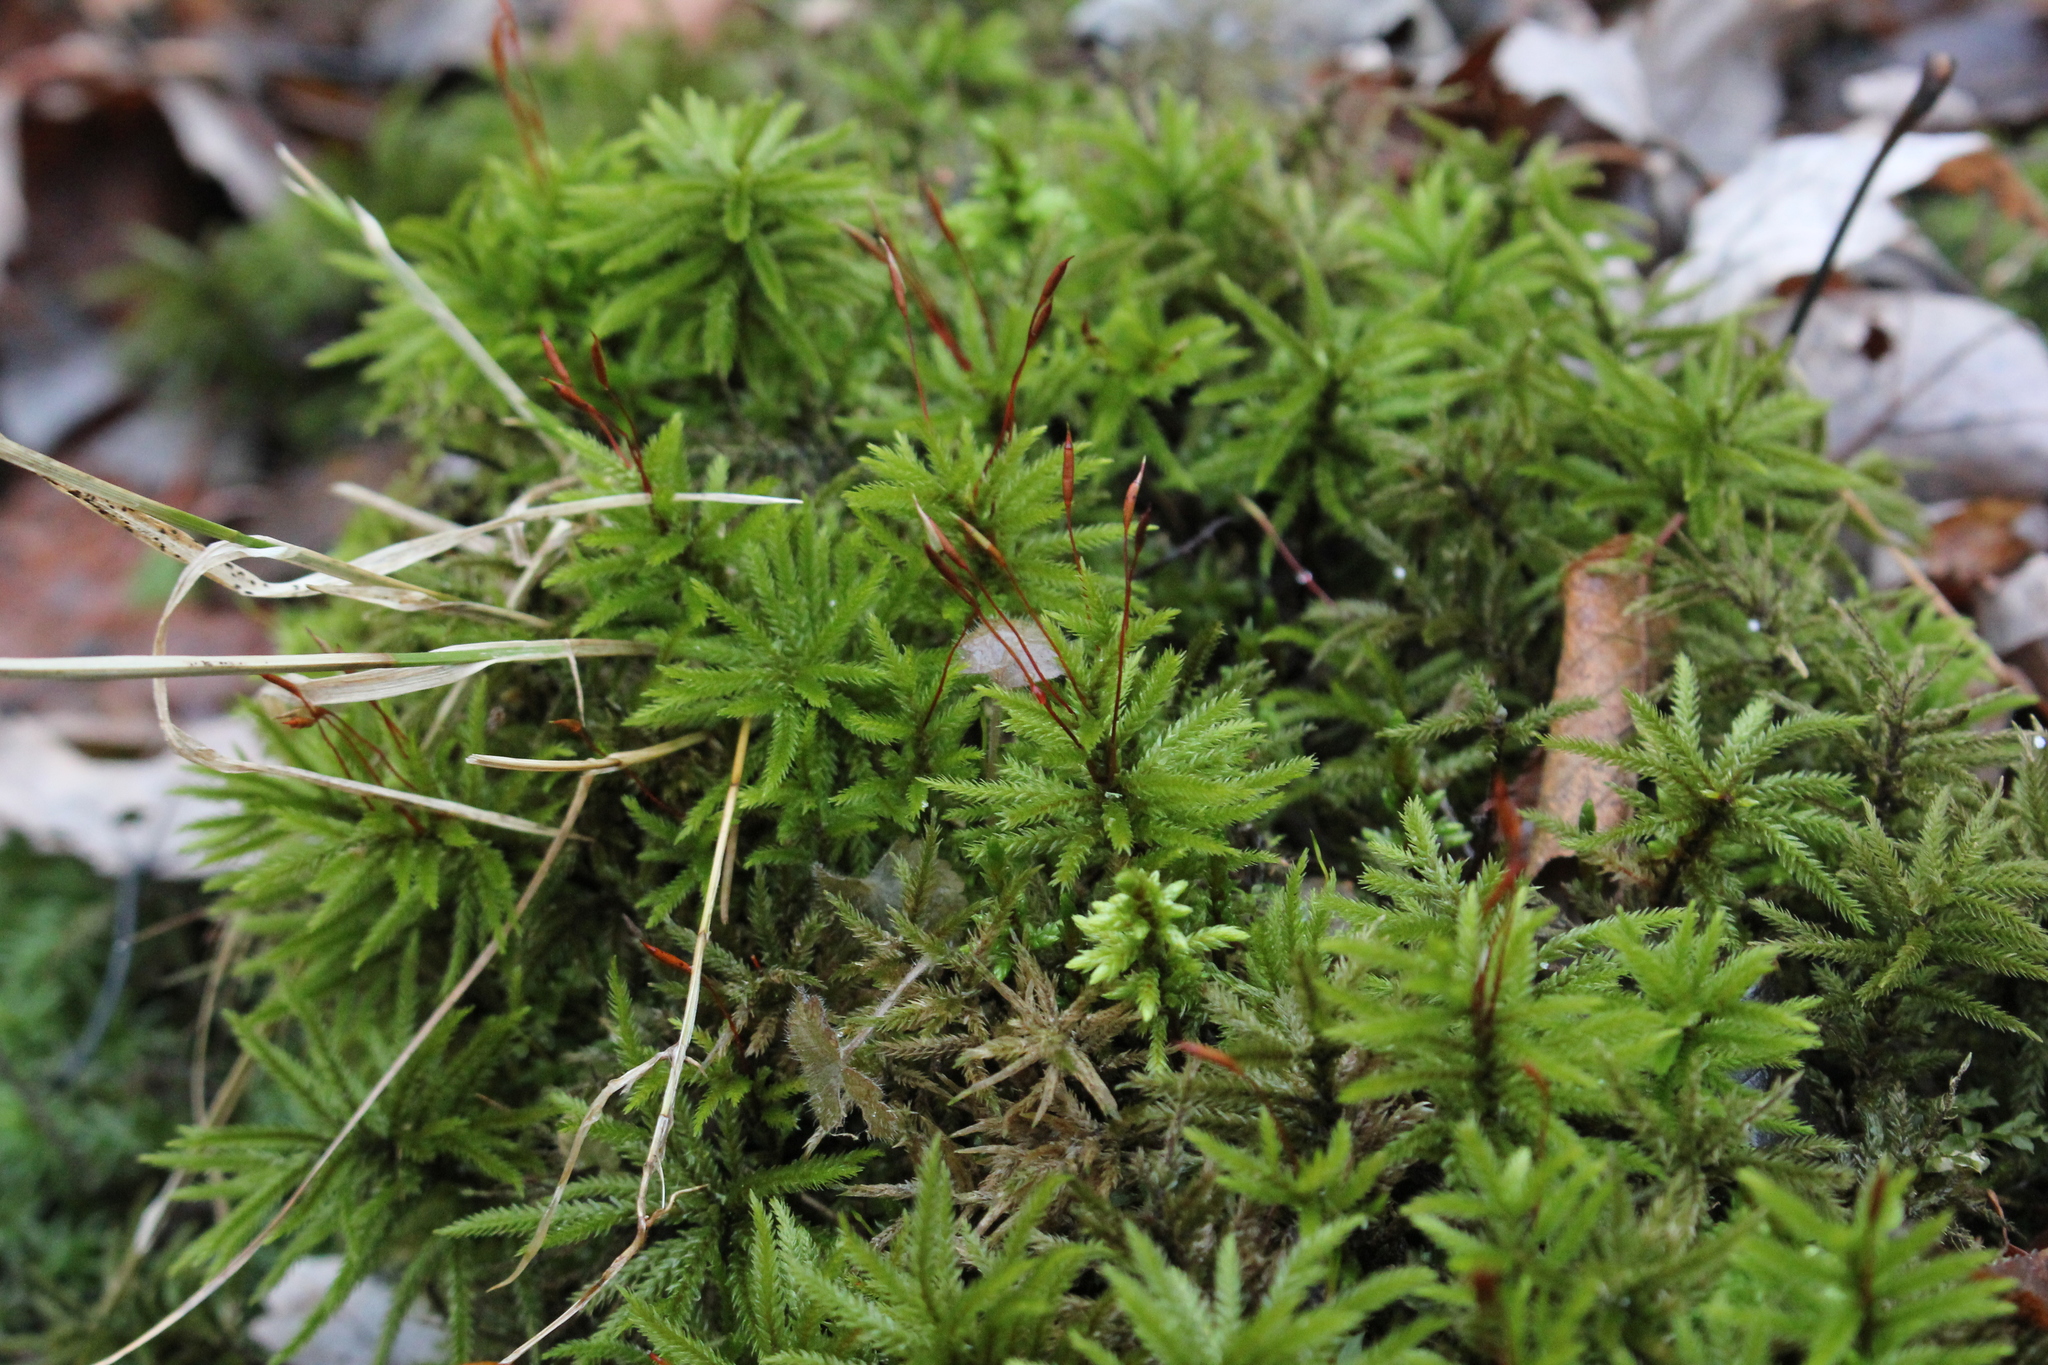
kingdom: Plantae
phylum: Bryophyta
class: Bryopsida
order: Hypnales
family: Climaciaceae
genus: Climacium
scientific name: Climacium americanum
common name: American tree moss
